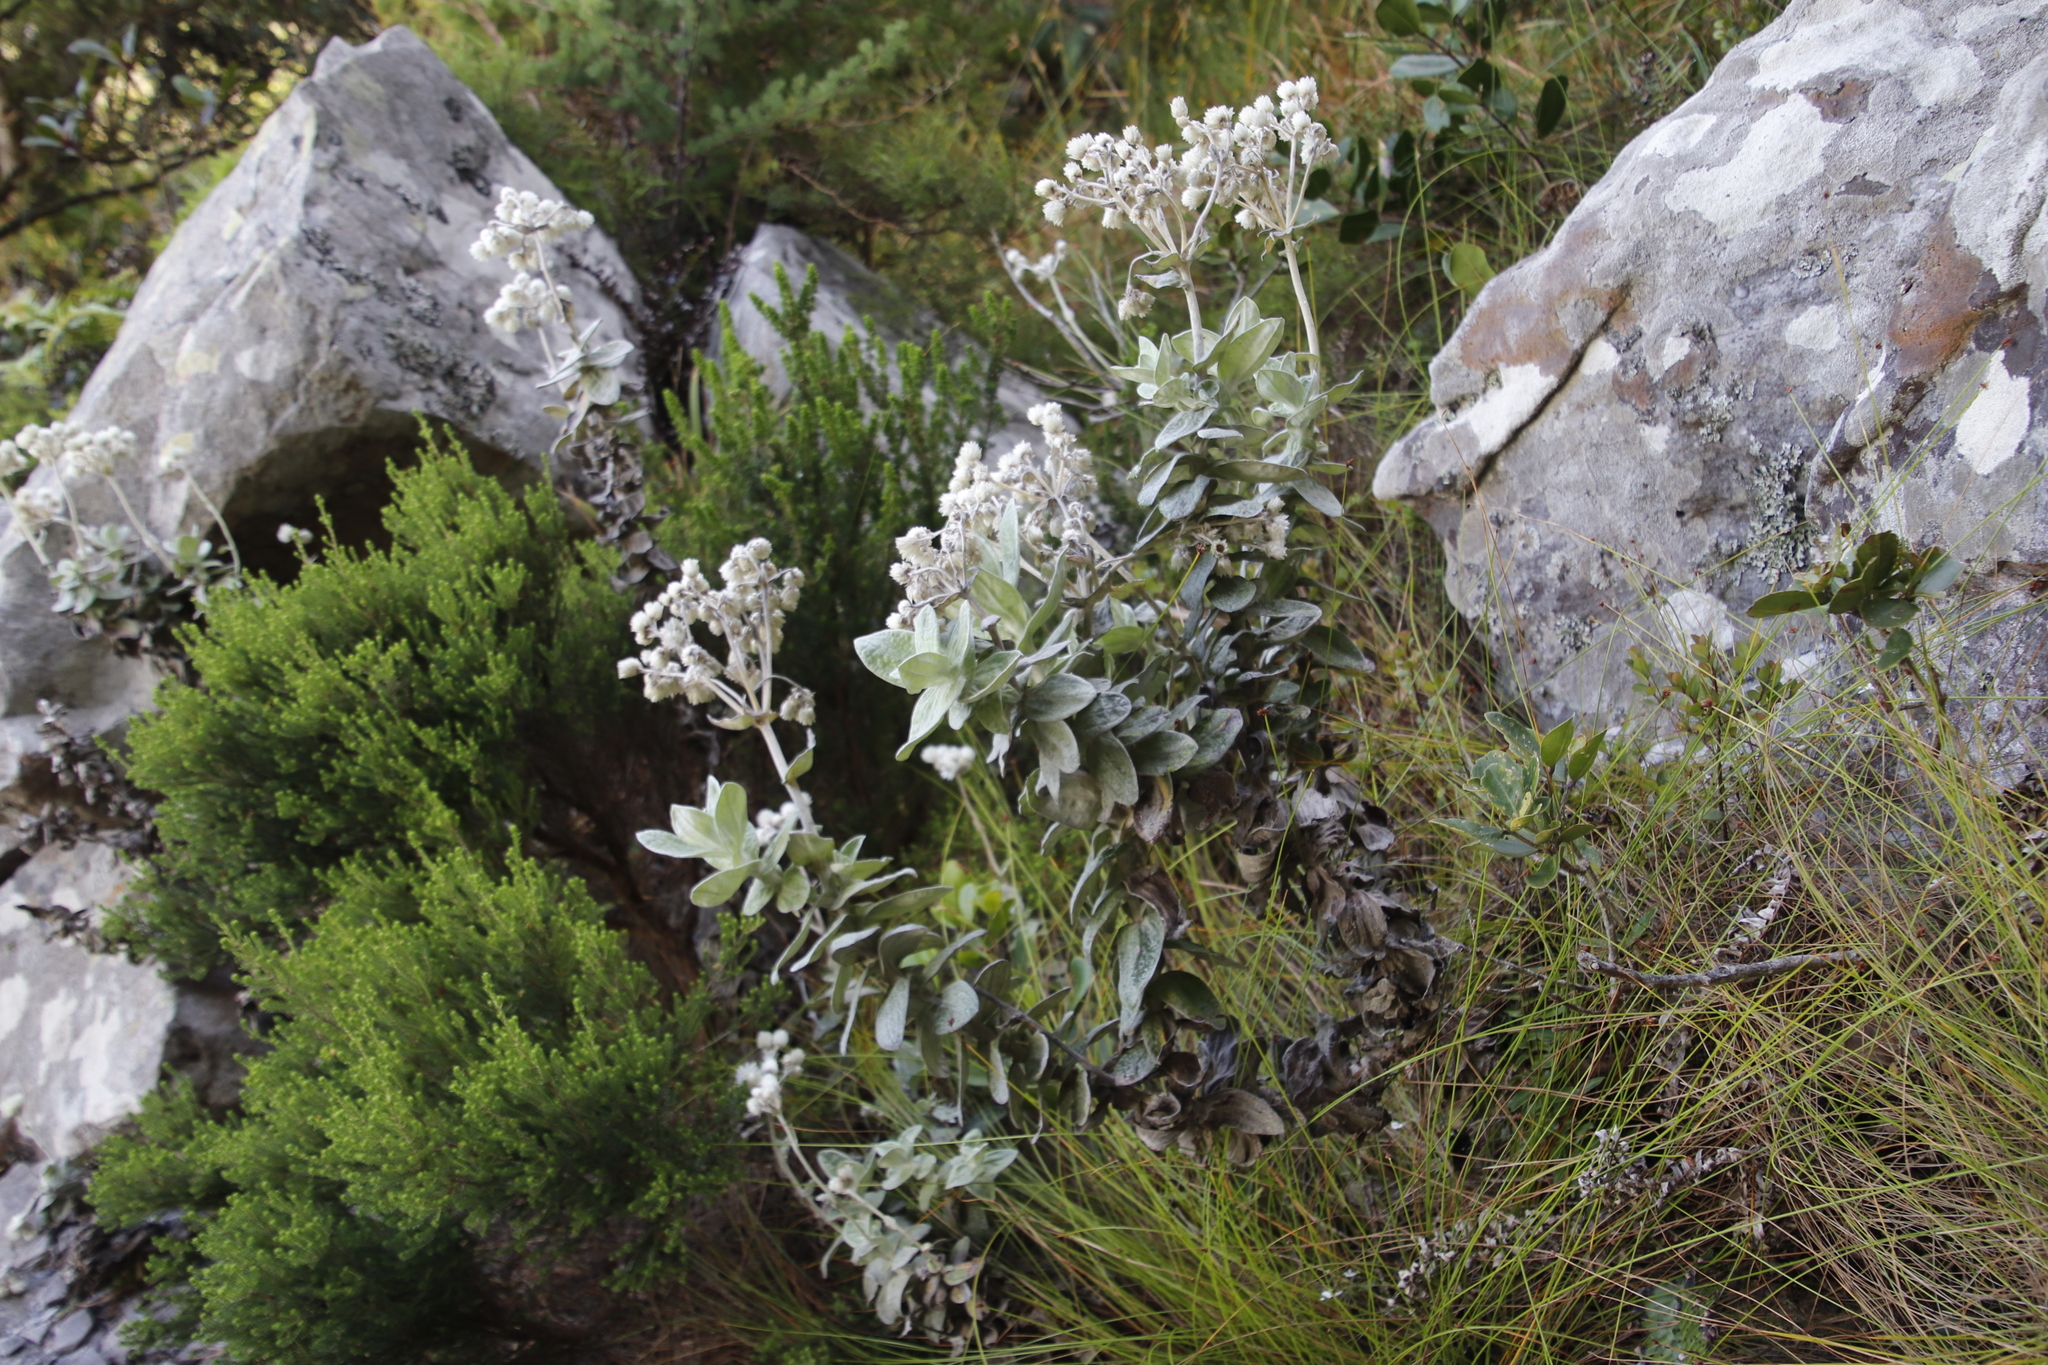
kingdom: Plantae
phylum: Tracheophyta
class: Magnoliopsida
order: Asterales
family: Asteraceae
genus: Helichrysum
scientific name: Helichrysum fruticans
